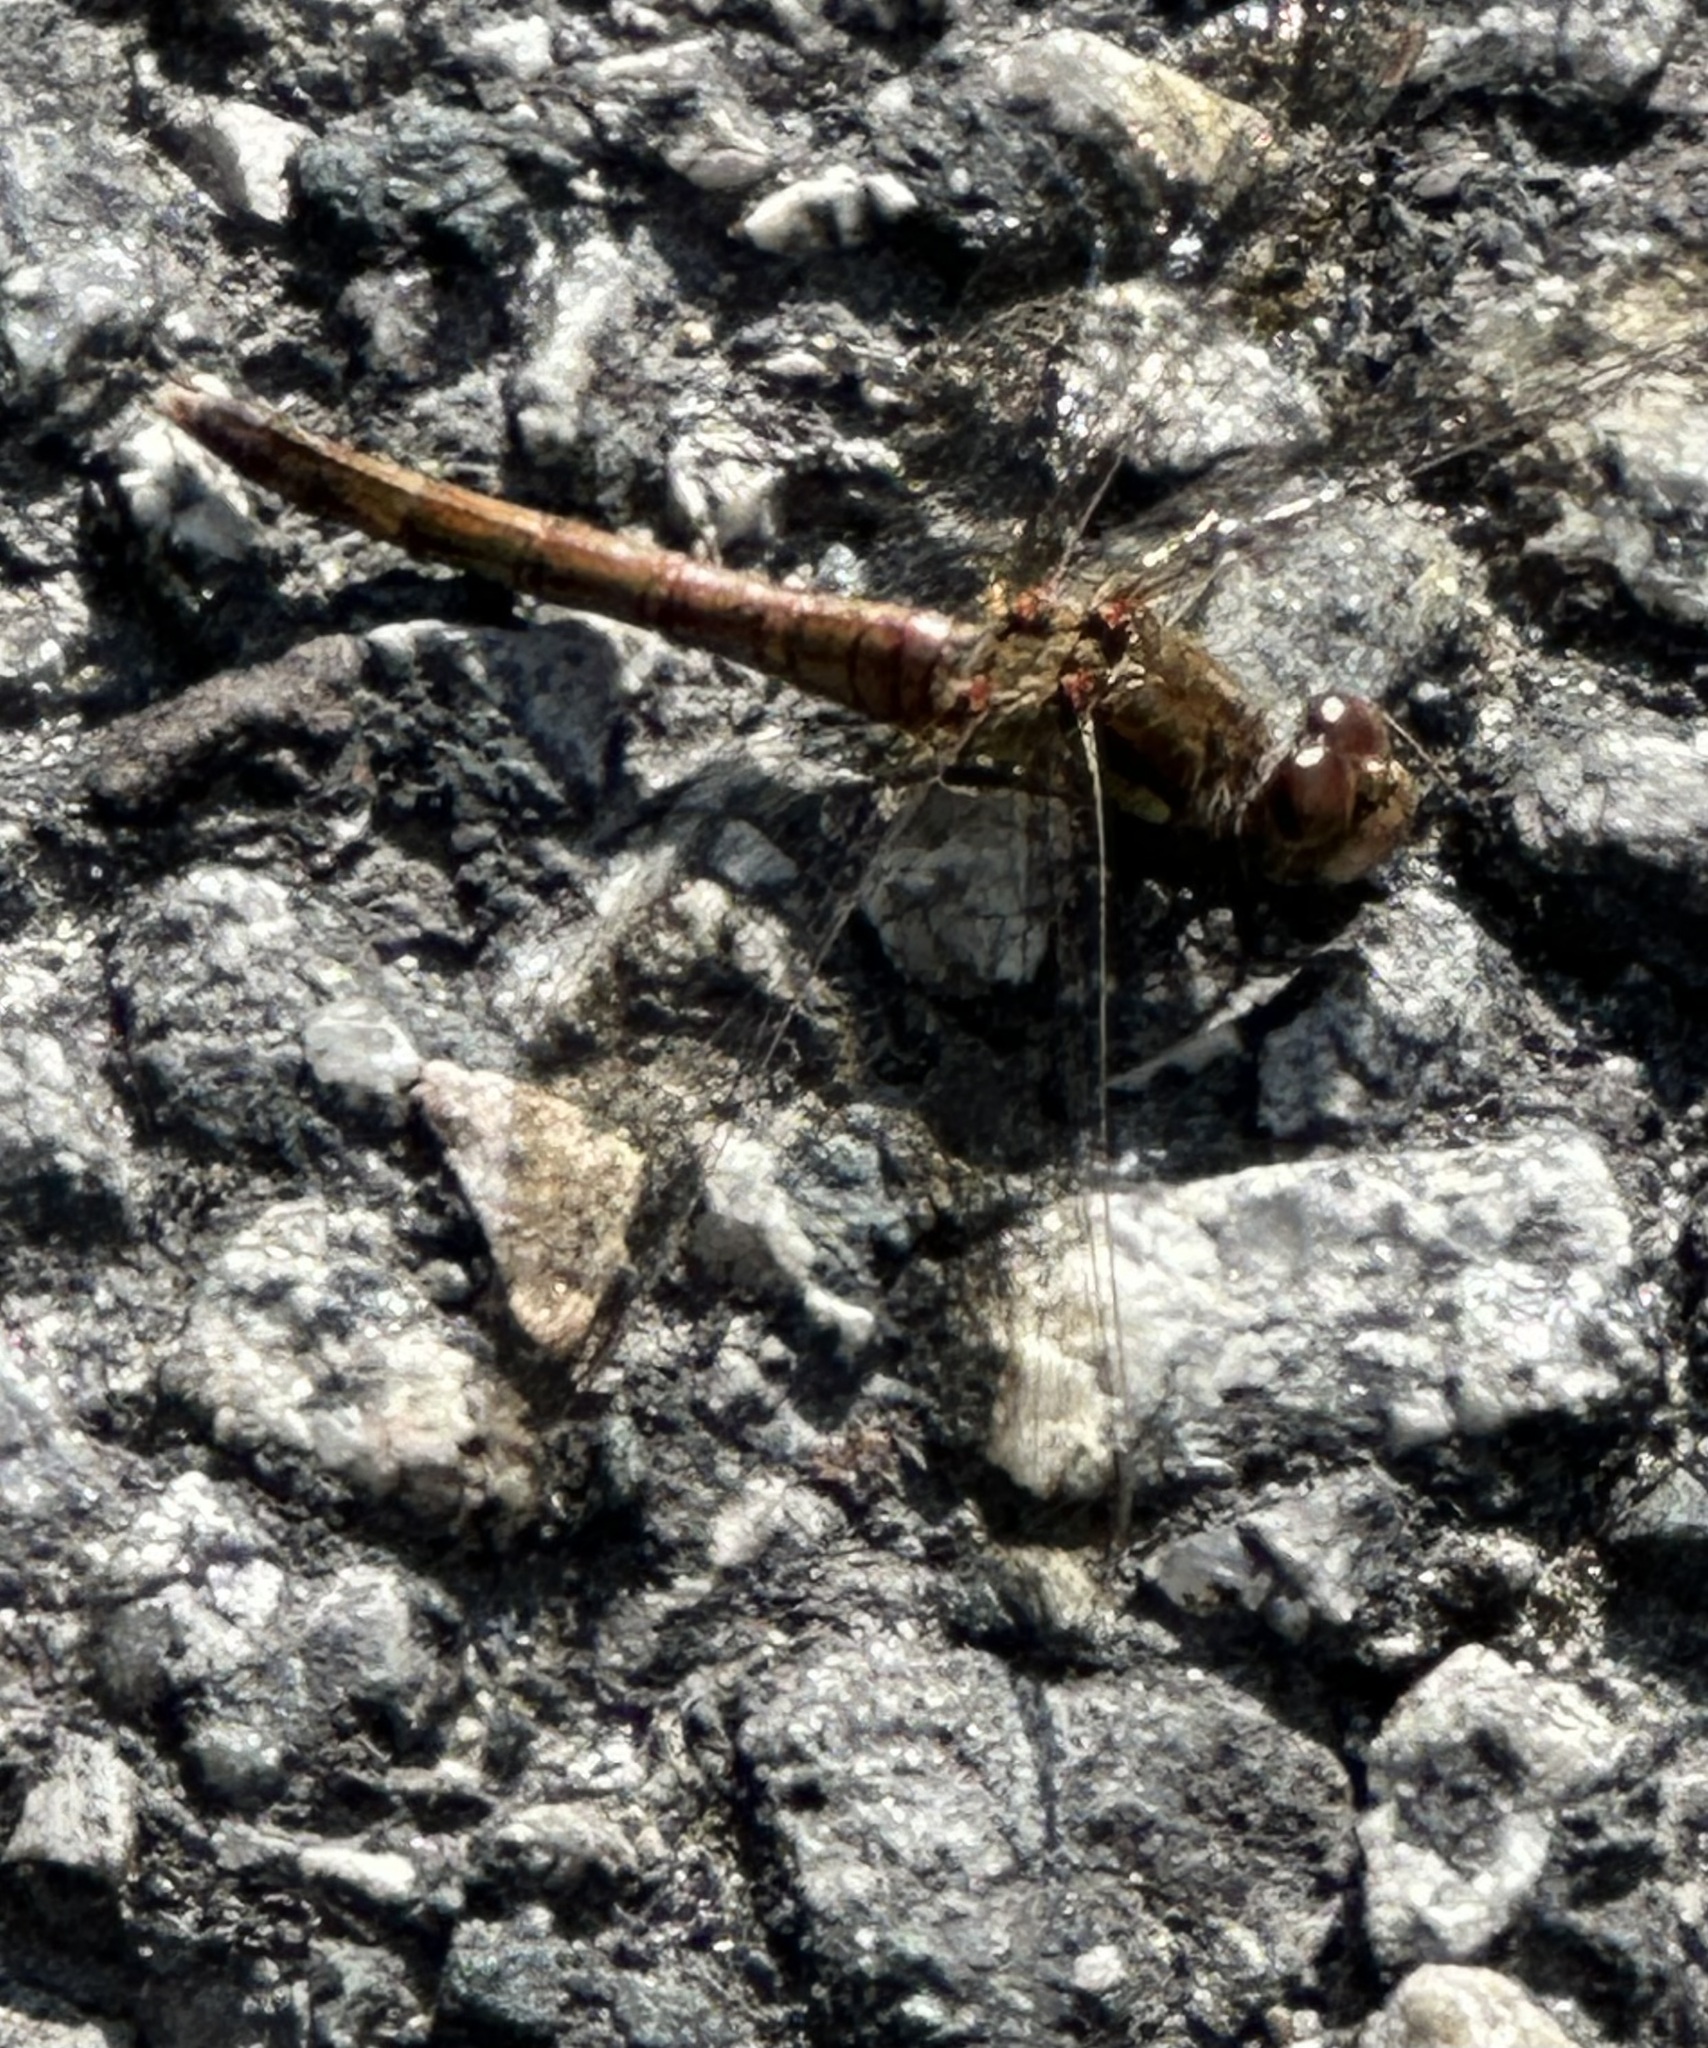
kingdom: Animalia
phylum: Arthropoda
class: Insecta
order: Odonata
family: Libellulidae
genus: Sympetrum
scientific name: Sympetrum striolatum
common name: Common darter
